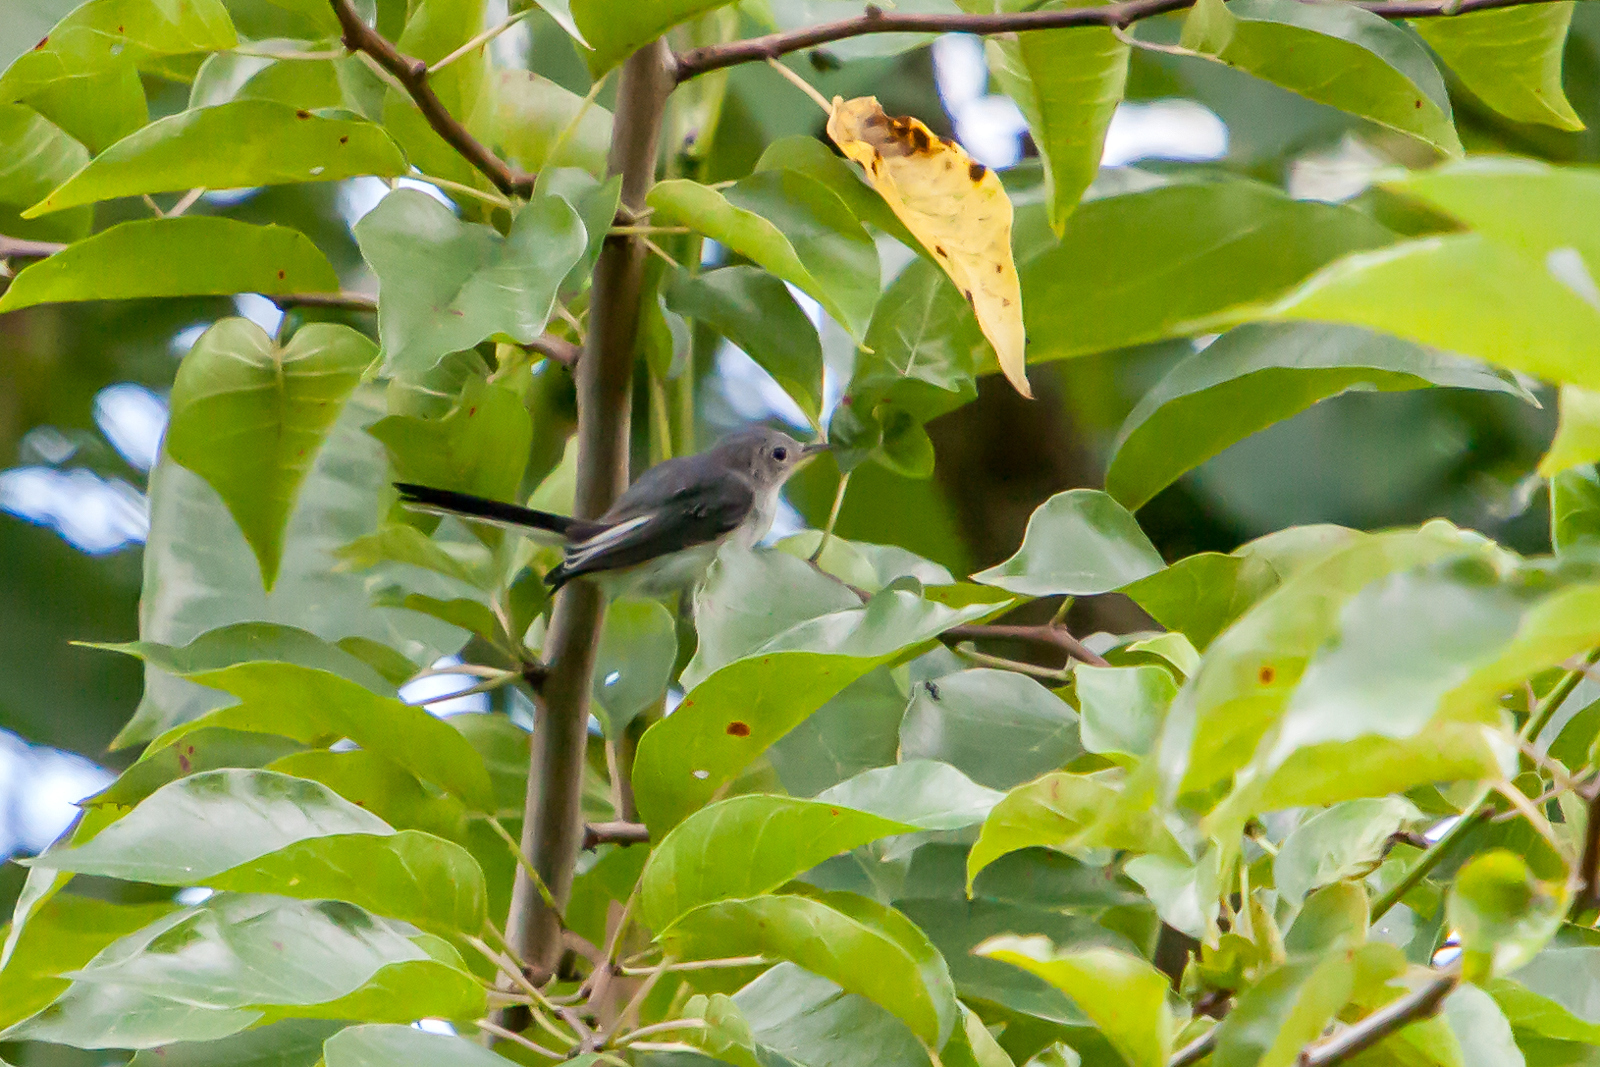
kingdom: Animalia
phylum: Chordata
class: Aves
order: Passeriformes
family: Polioptilidae
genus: Polioptila
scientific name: Polioptila caerulea
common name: Blue-gray gnatcatcher
